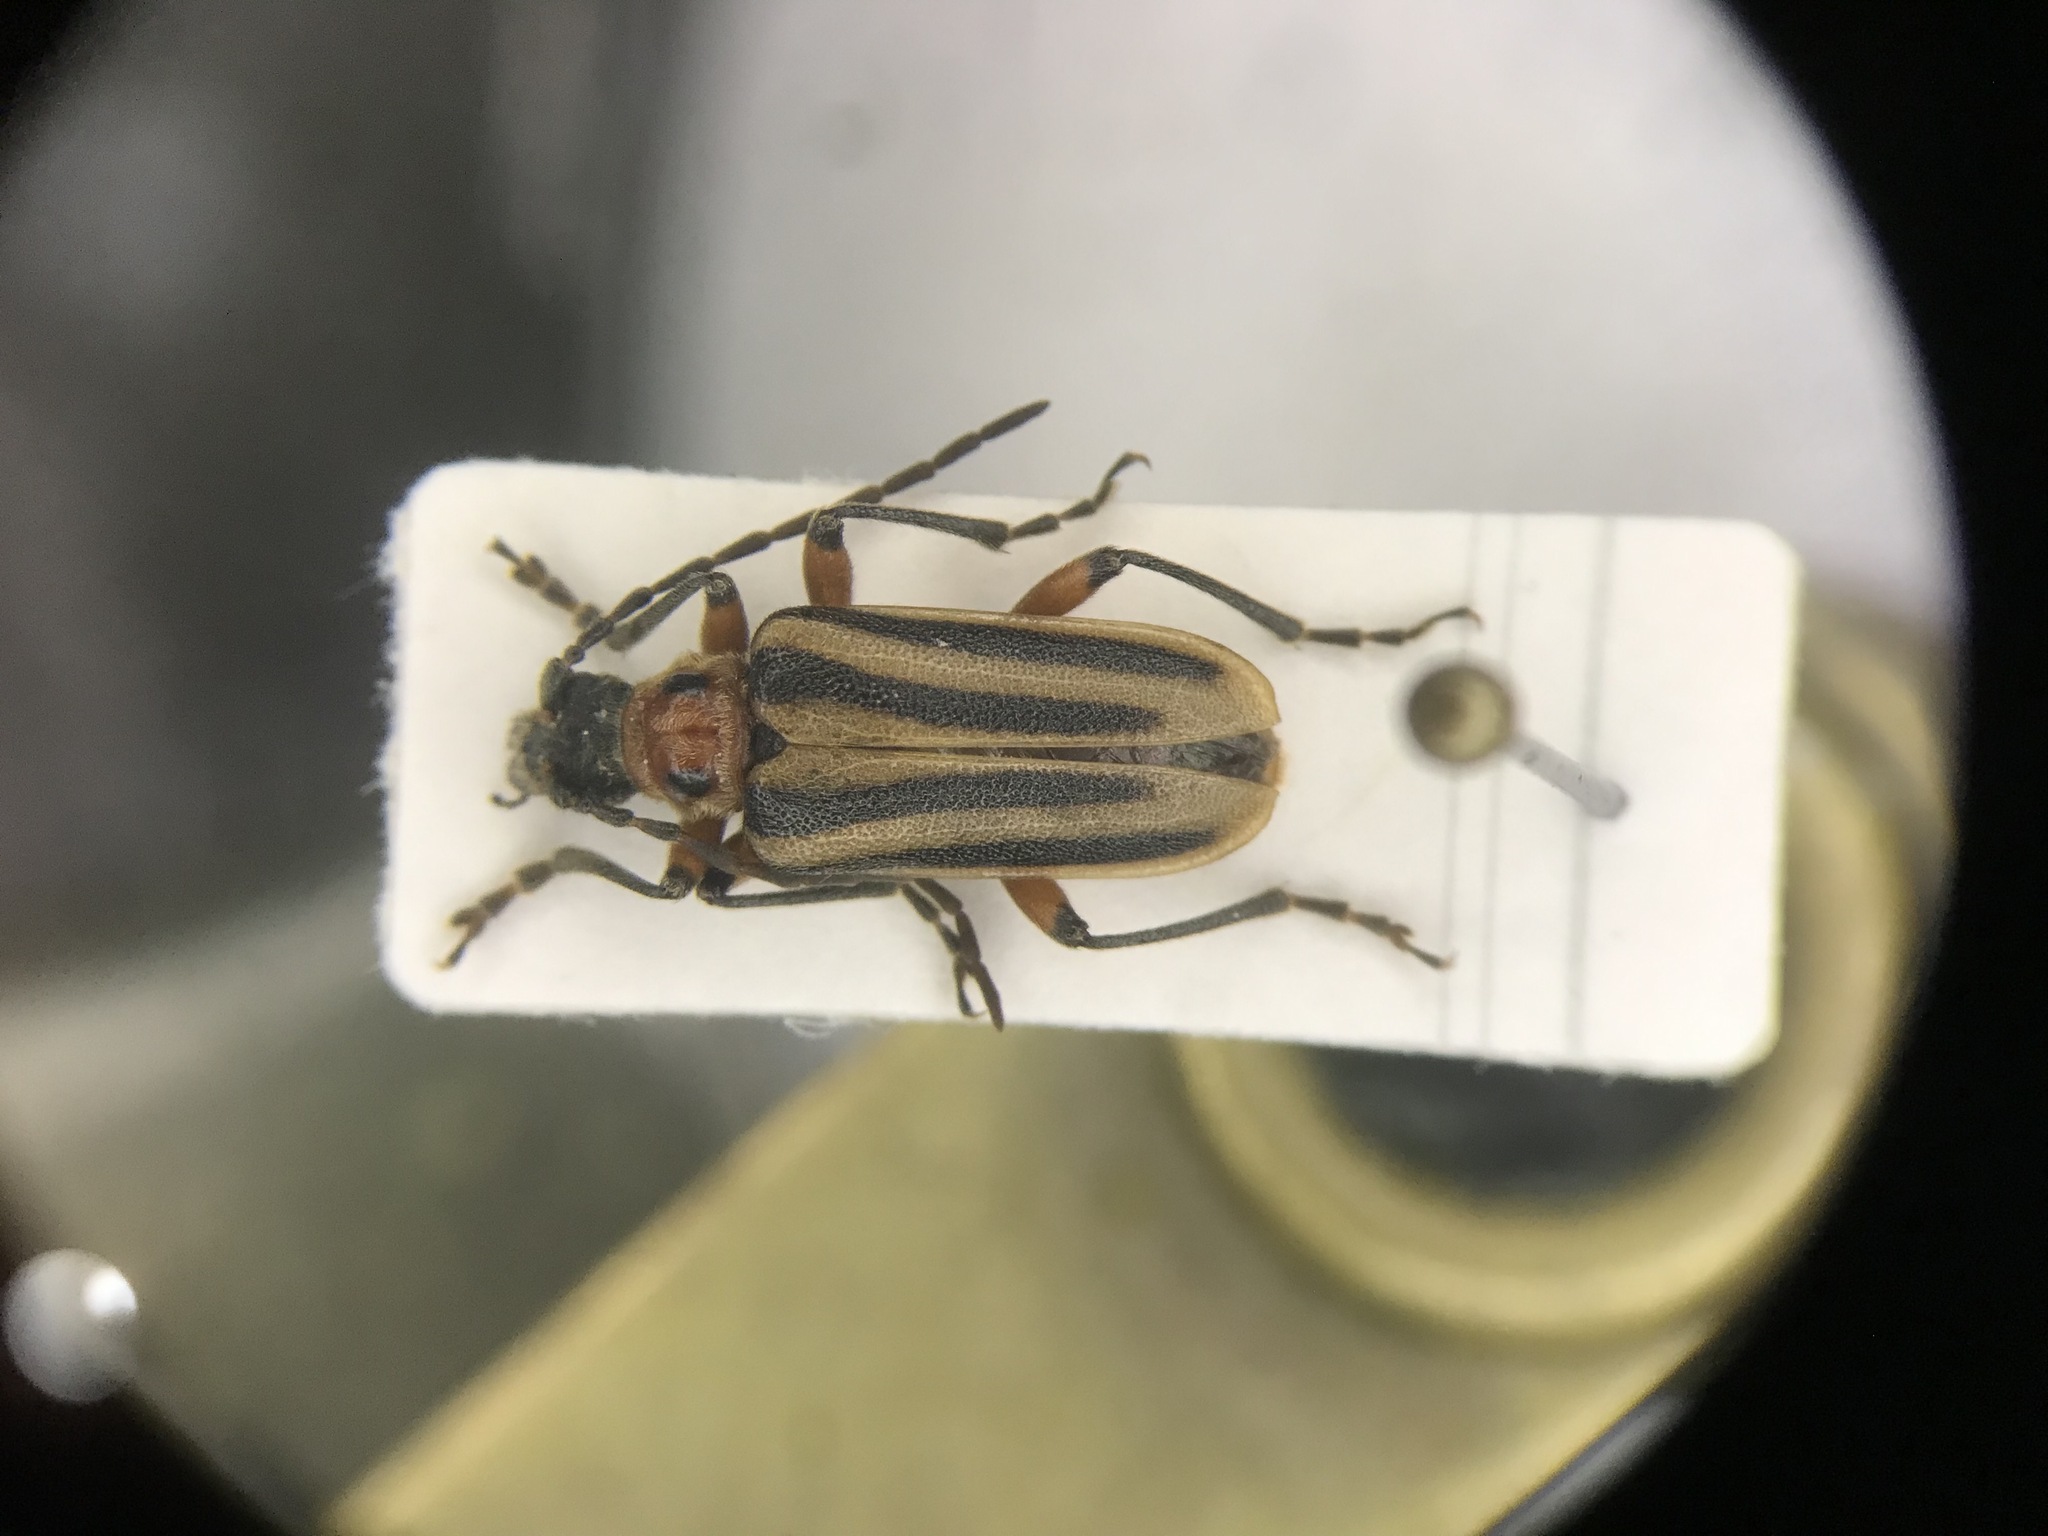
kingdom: Animalia
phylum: Arthropoda
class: Insecta
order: Coleoptera
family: Cerambycidae
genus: Brachysomida
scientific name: Brachysomida bivittata
